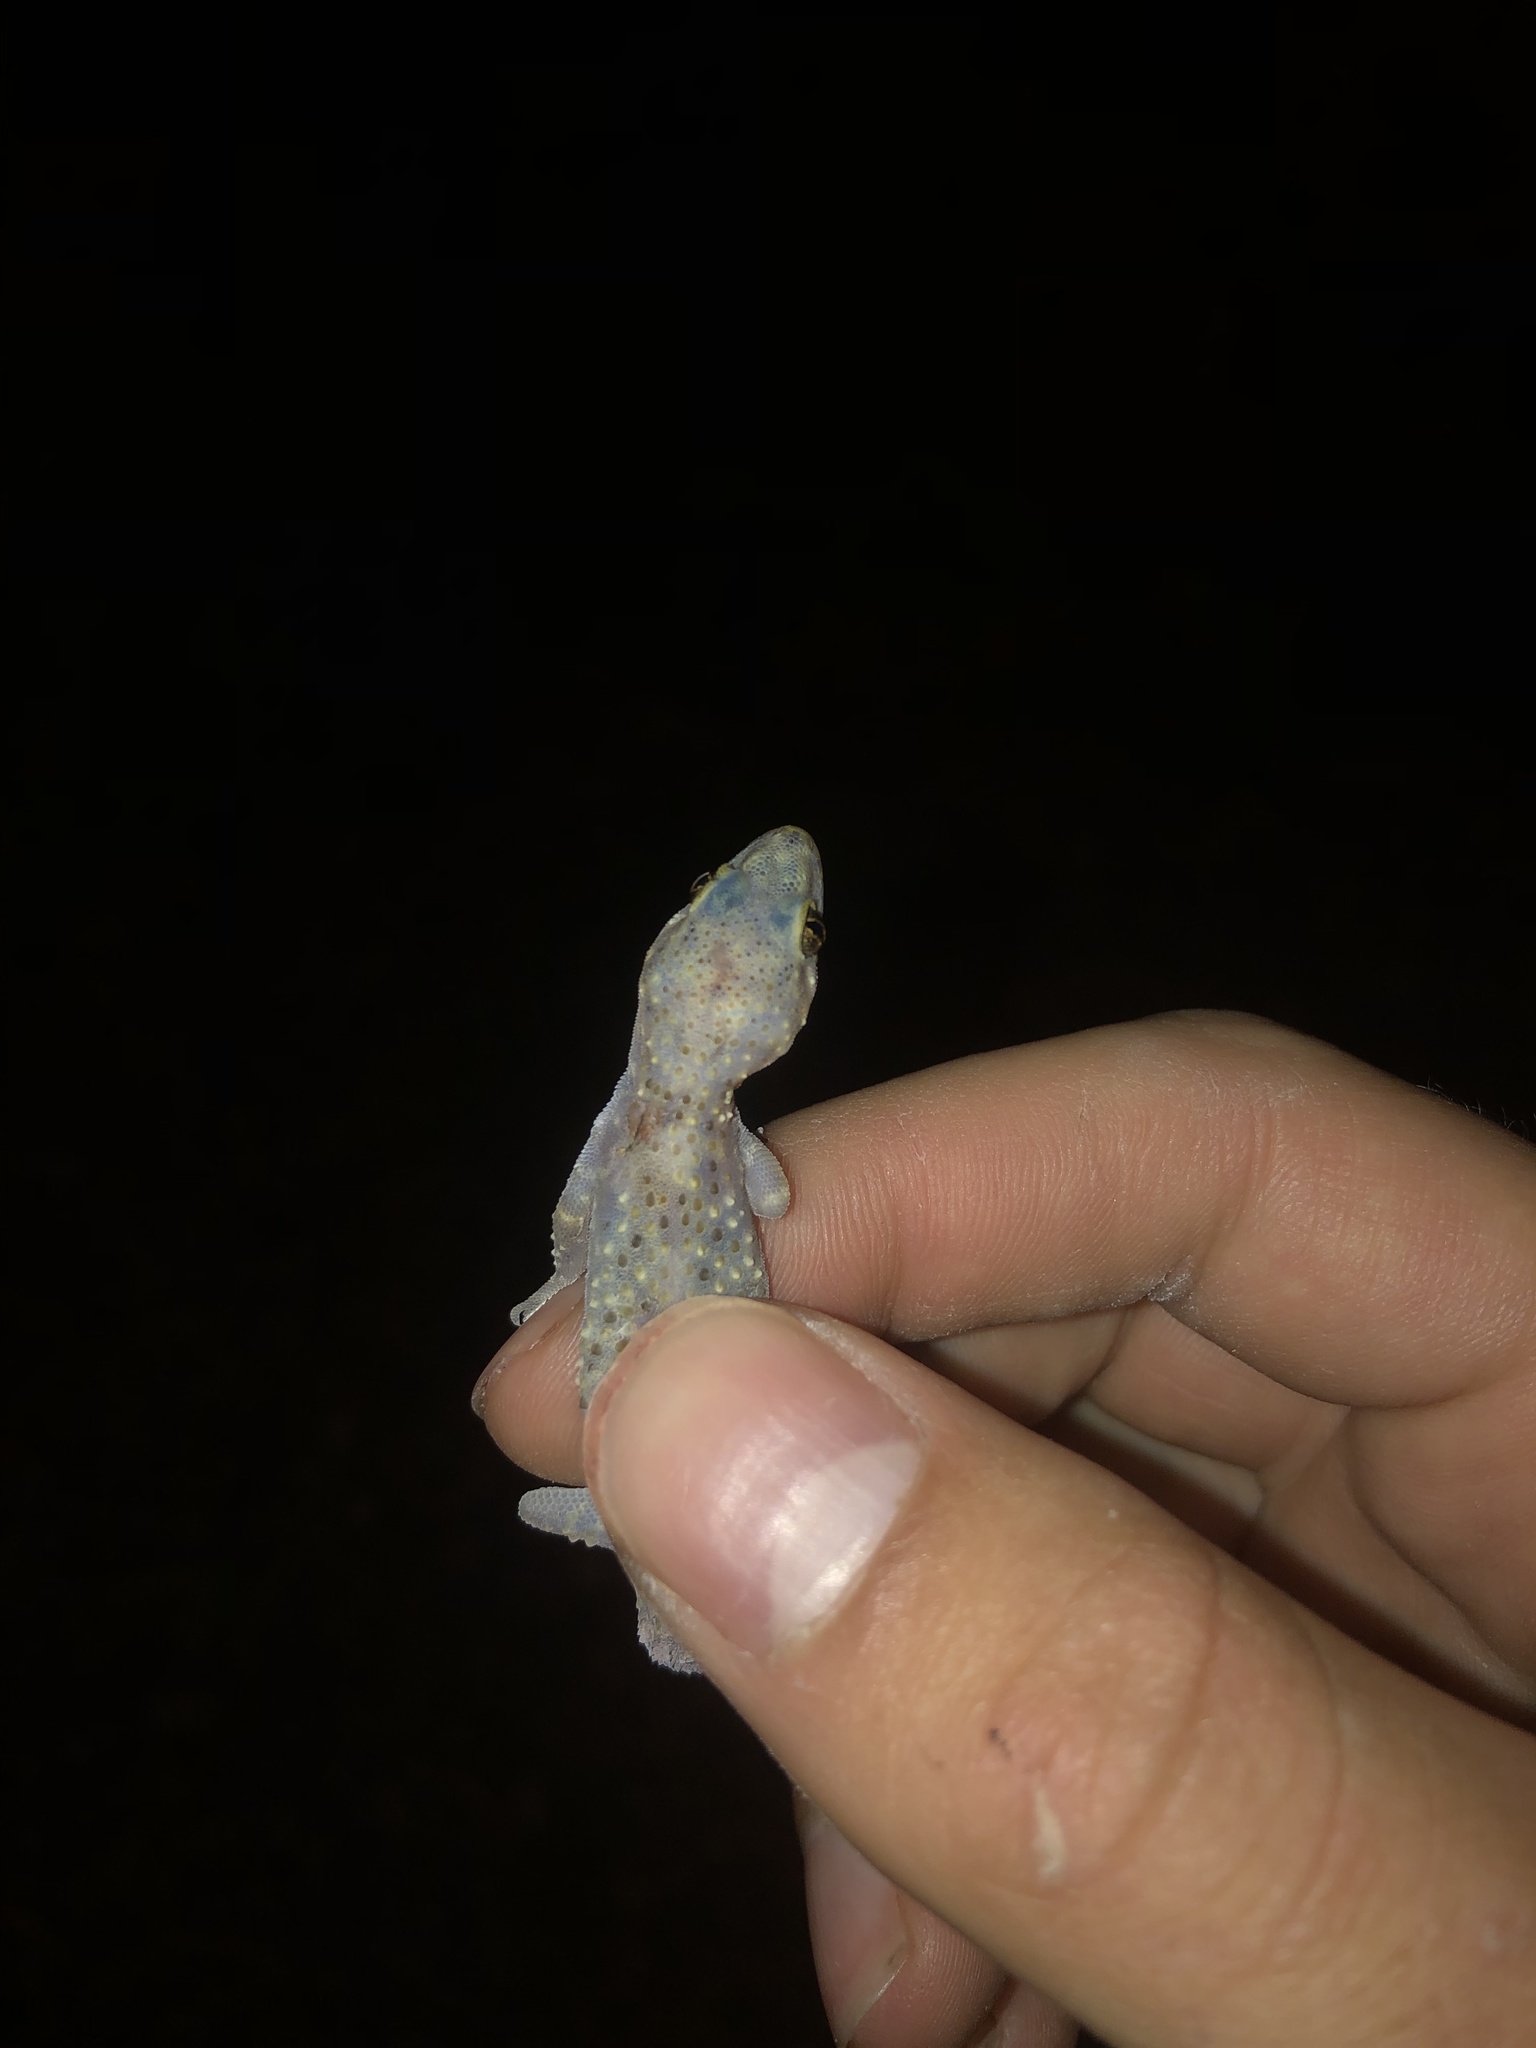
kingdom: Animalia
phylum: Chordata
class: Squamata
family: Gekkonidae
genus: Hemidactylus
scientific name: Hemidactylus turcicus
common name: Turkish gecko
